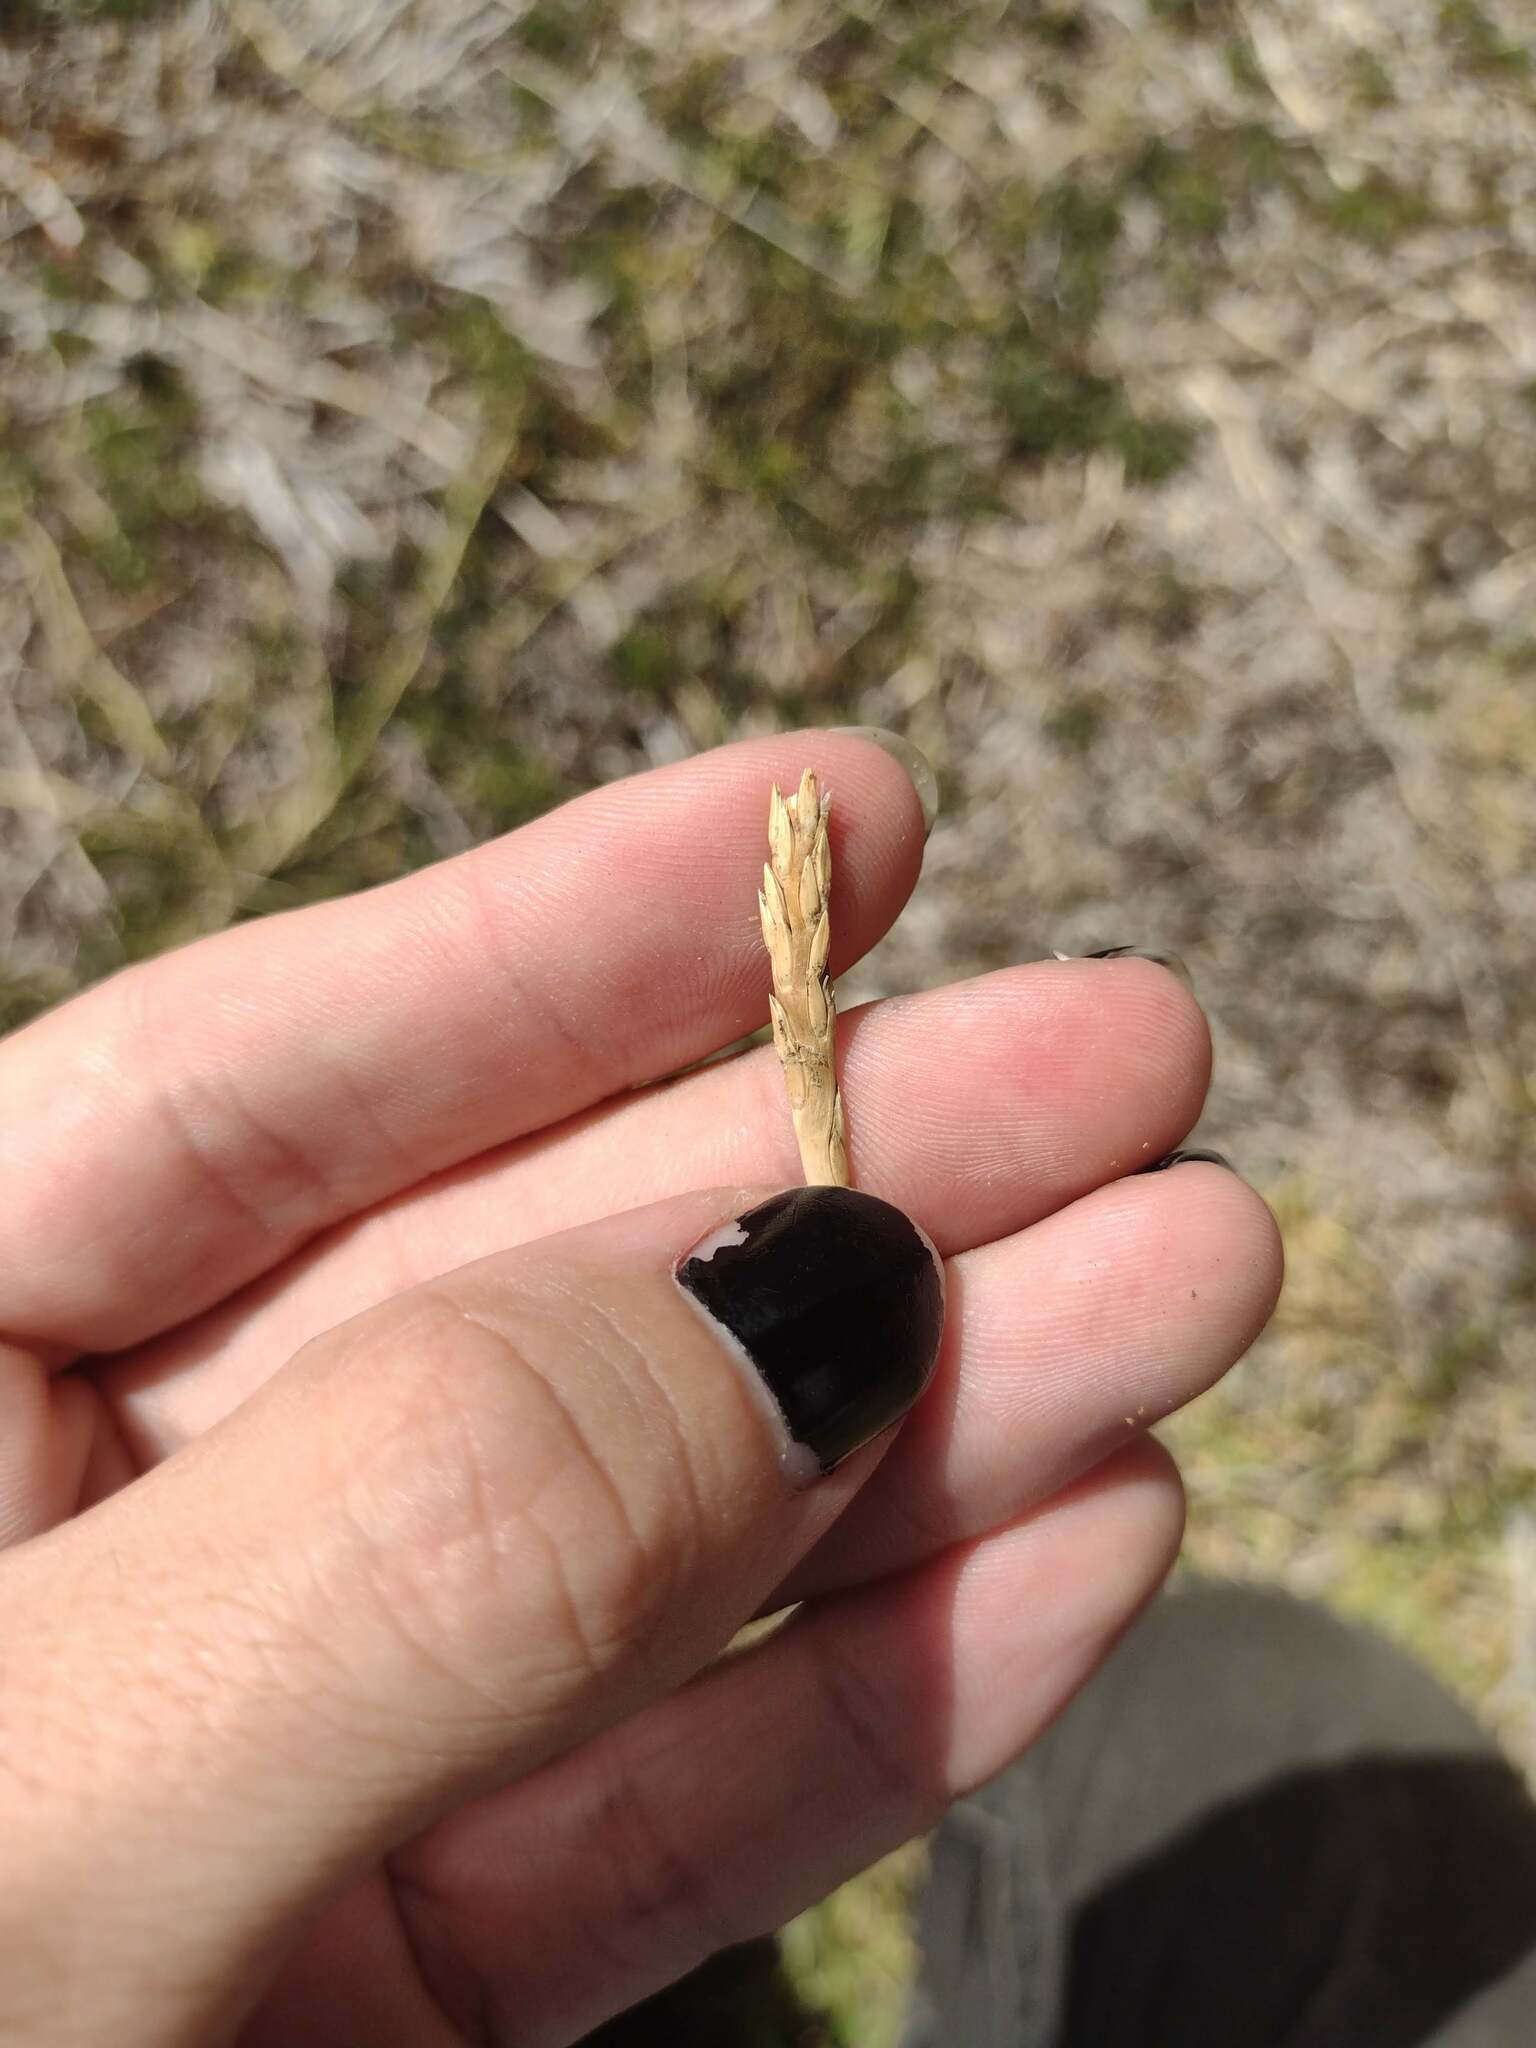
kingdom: Plantae
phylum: Tracheophyta
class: Liliopsida
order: Poales
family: Poaceae
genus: Stenotaphrum
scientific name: Stenotaphrum secundatum
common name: St. augustine grass
